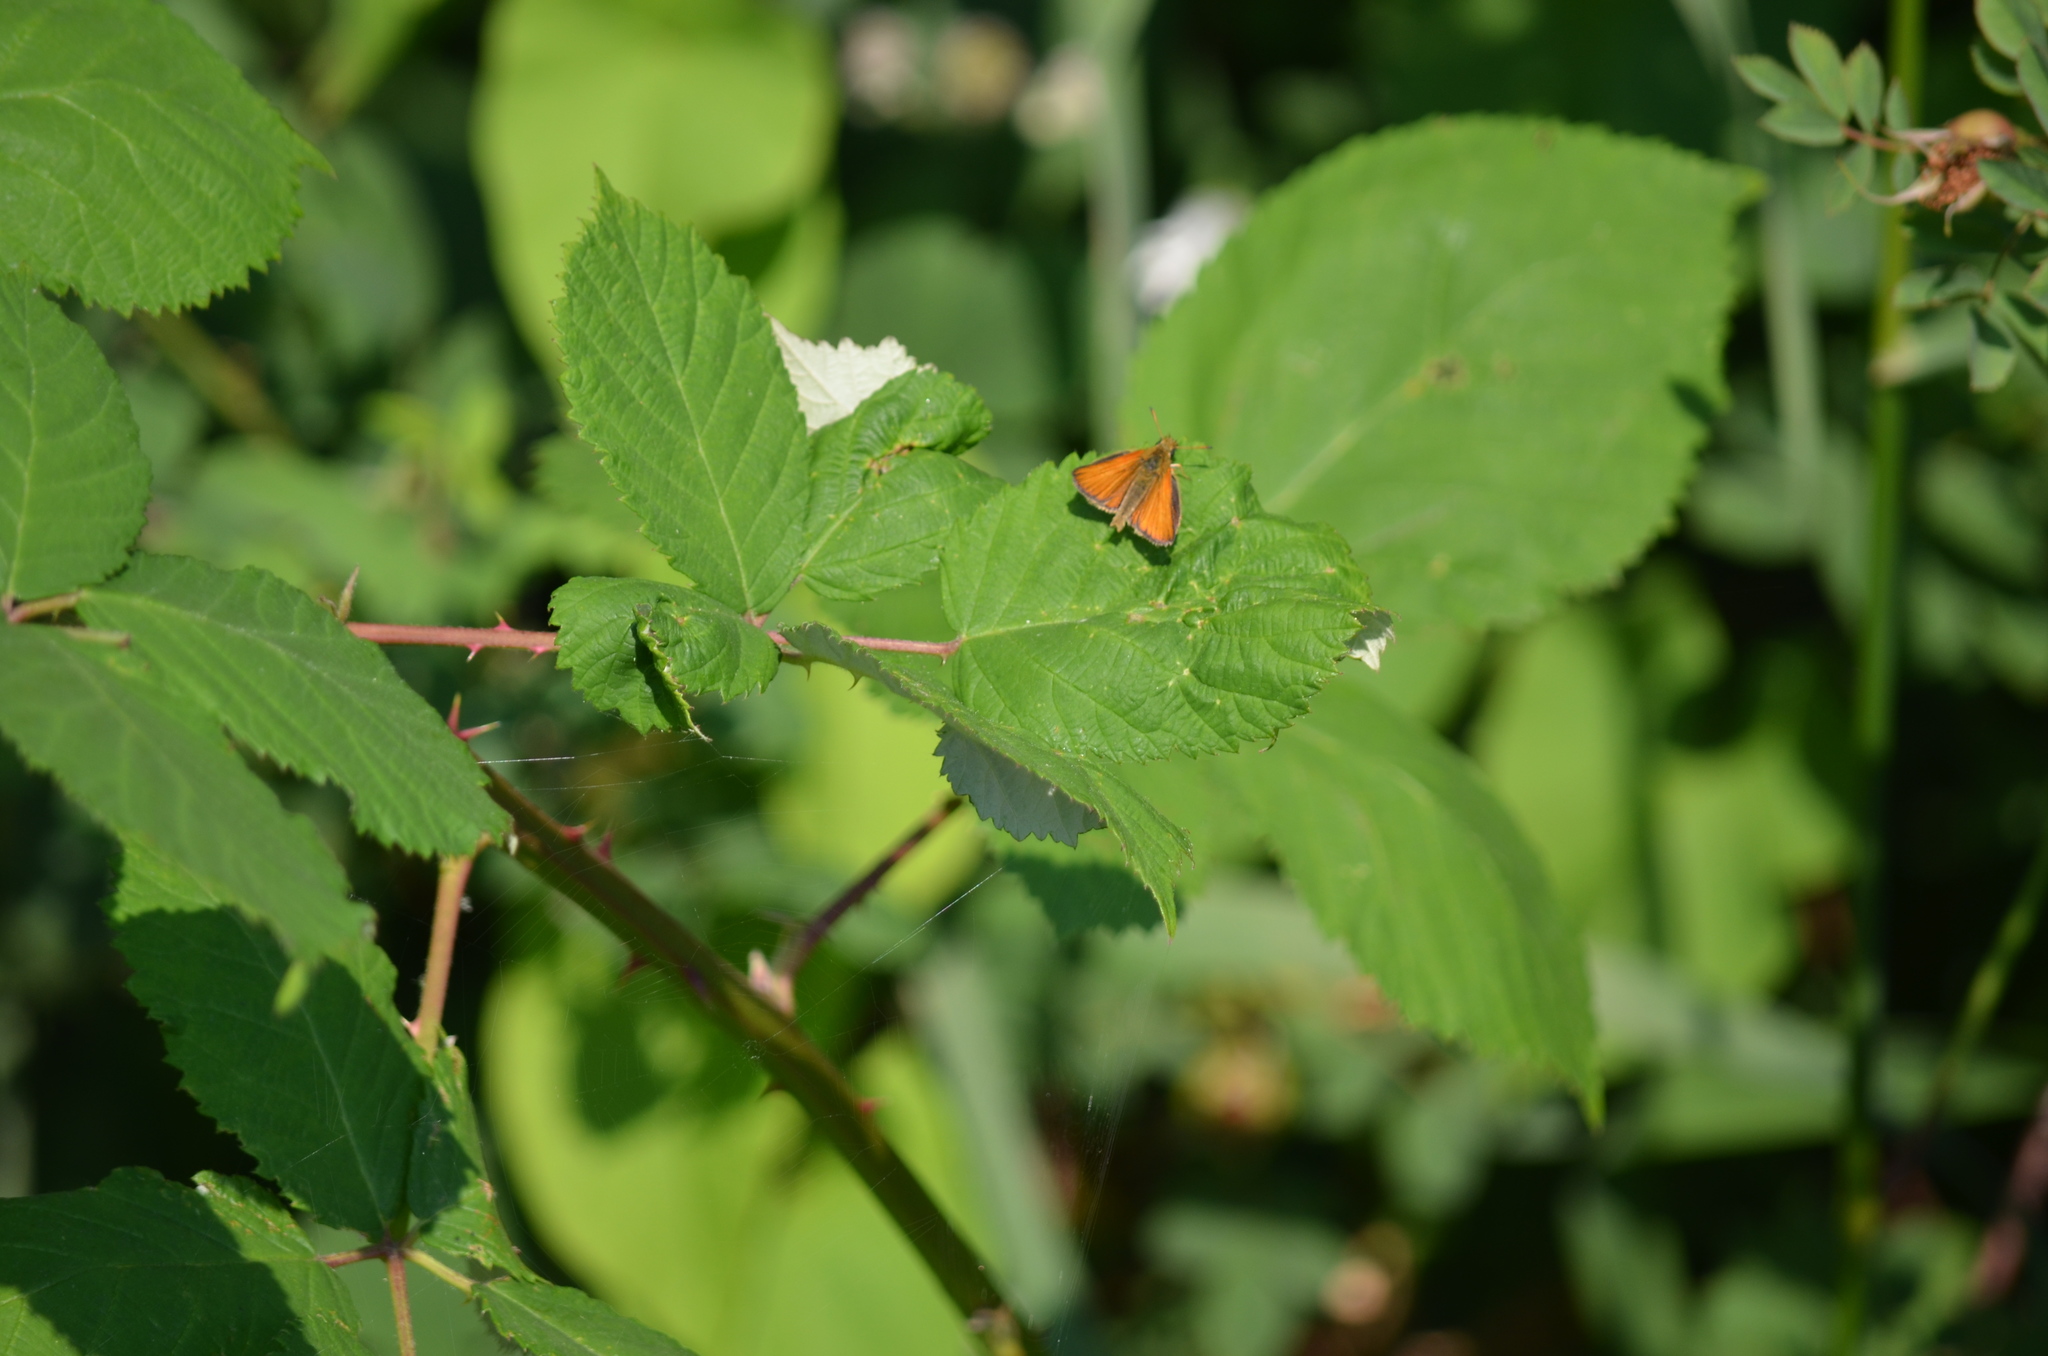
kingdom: Animalia
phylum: Arthropoda
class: Insecta
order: Lepidoptera
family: Hesperiidae
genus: Thymelicus
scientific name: Thymelicus lineola
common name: Essex skipper
